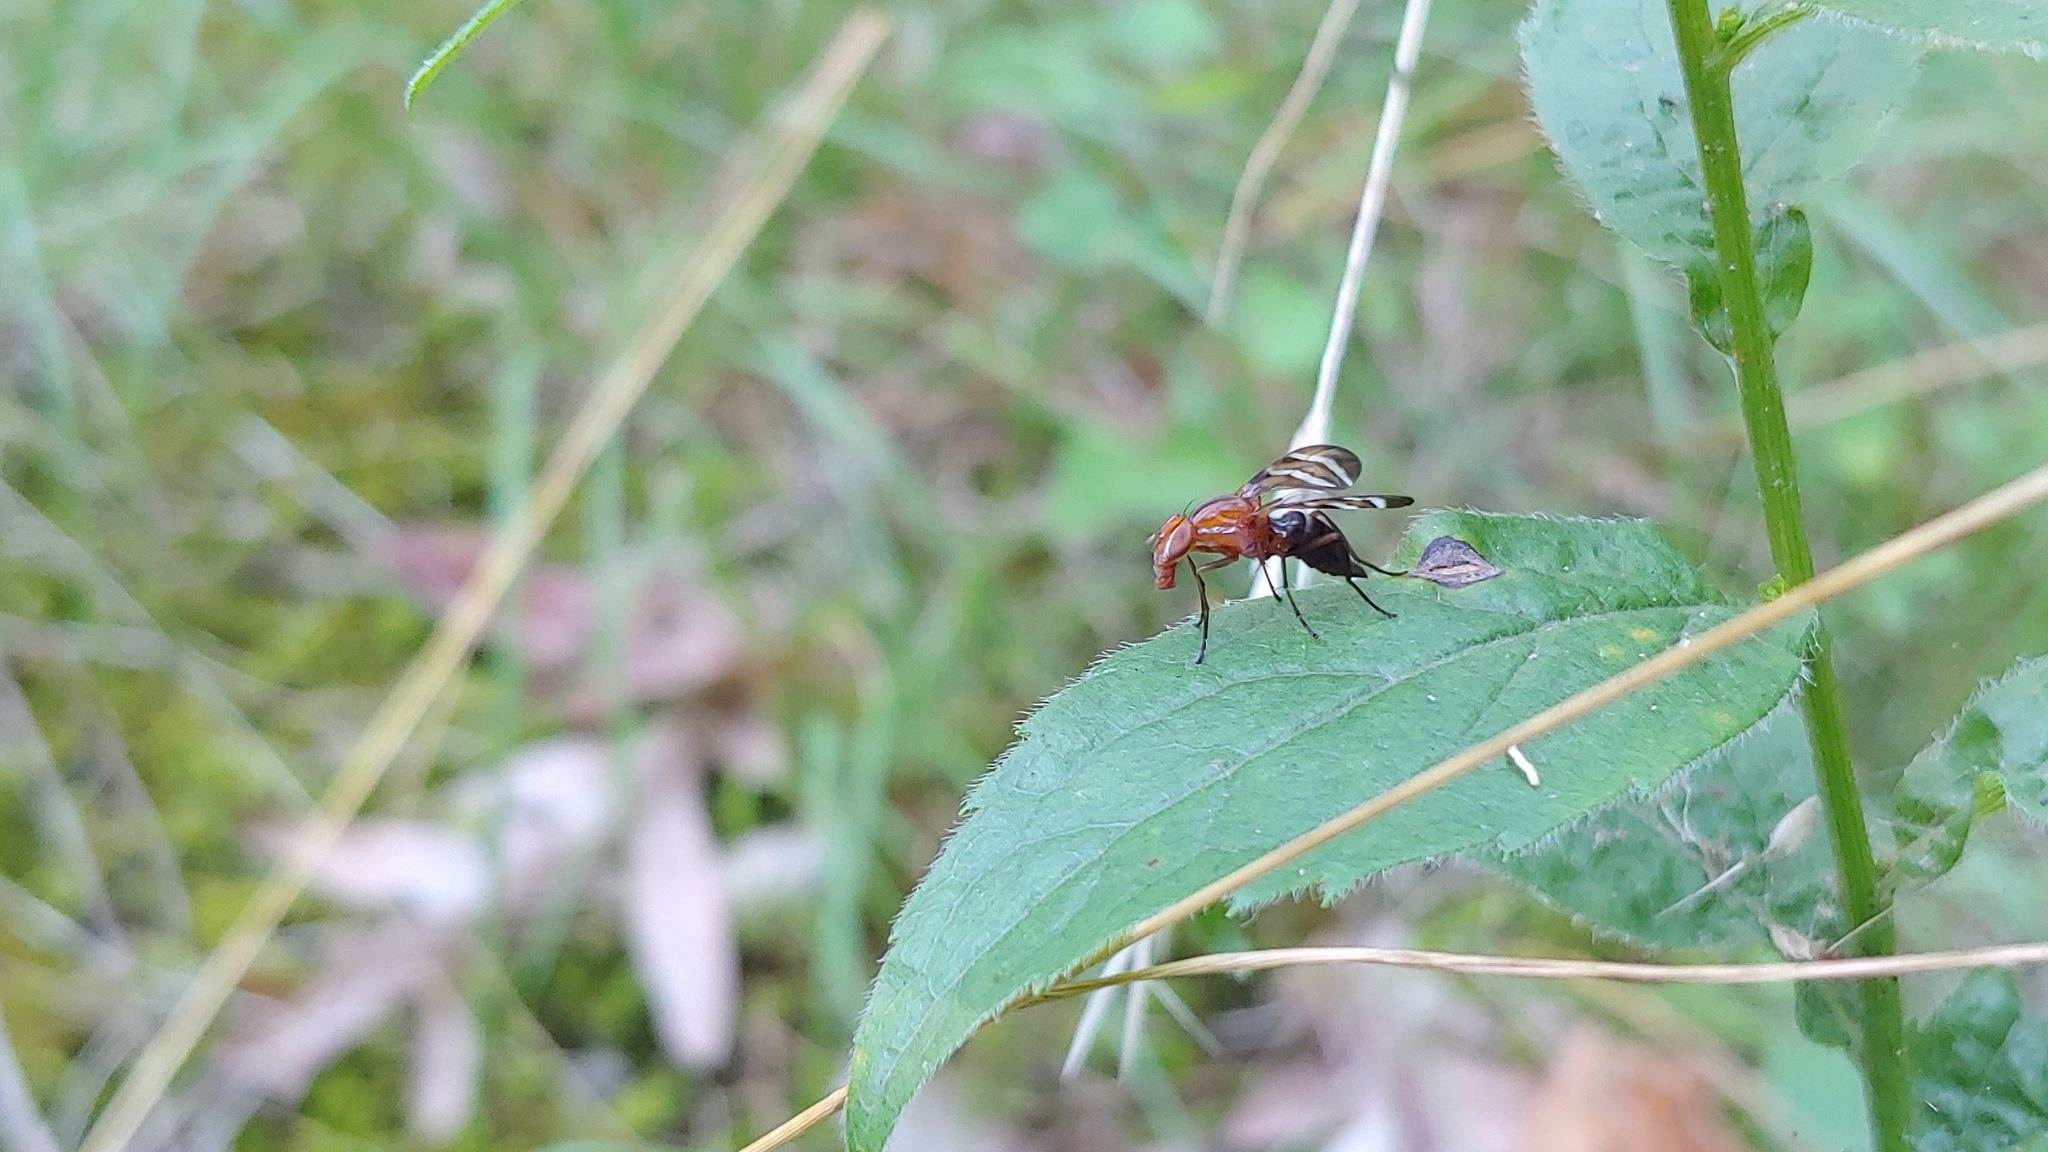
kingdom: Animalia
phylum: Arthropoda
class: Insecta
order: Diptera
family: Ulidiidae
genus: Tritoxa
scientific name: Tritoxa incurva
